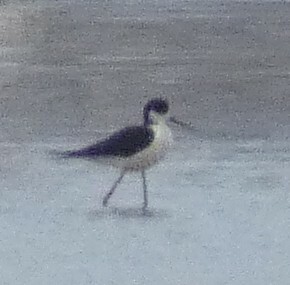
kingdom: Animalia
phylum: Chordata
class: Aves
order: Charadriiformes
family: Recurvirostridae
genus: Himantopus
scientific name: Himantopus himantopus
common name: Black-winged stilt
